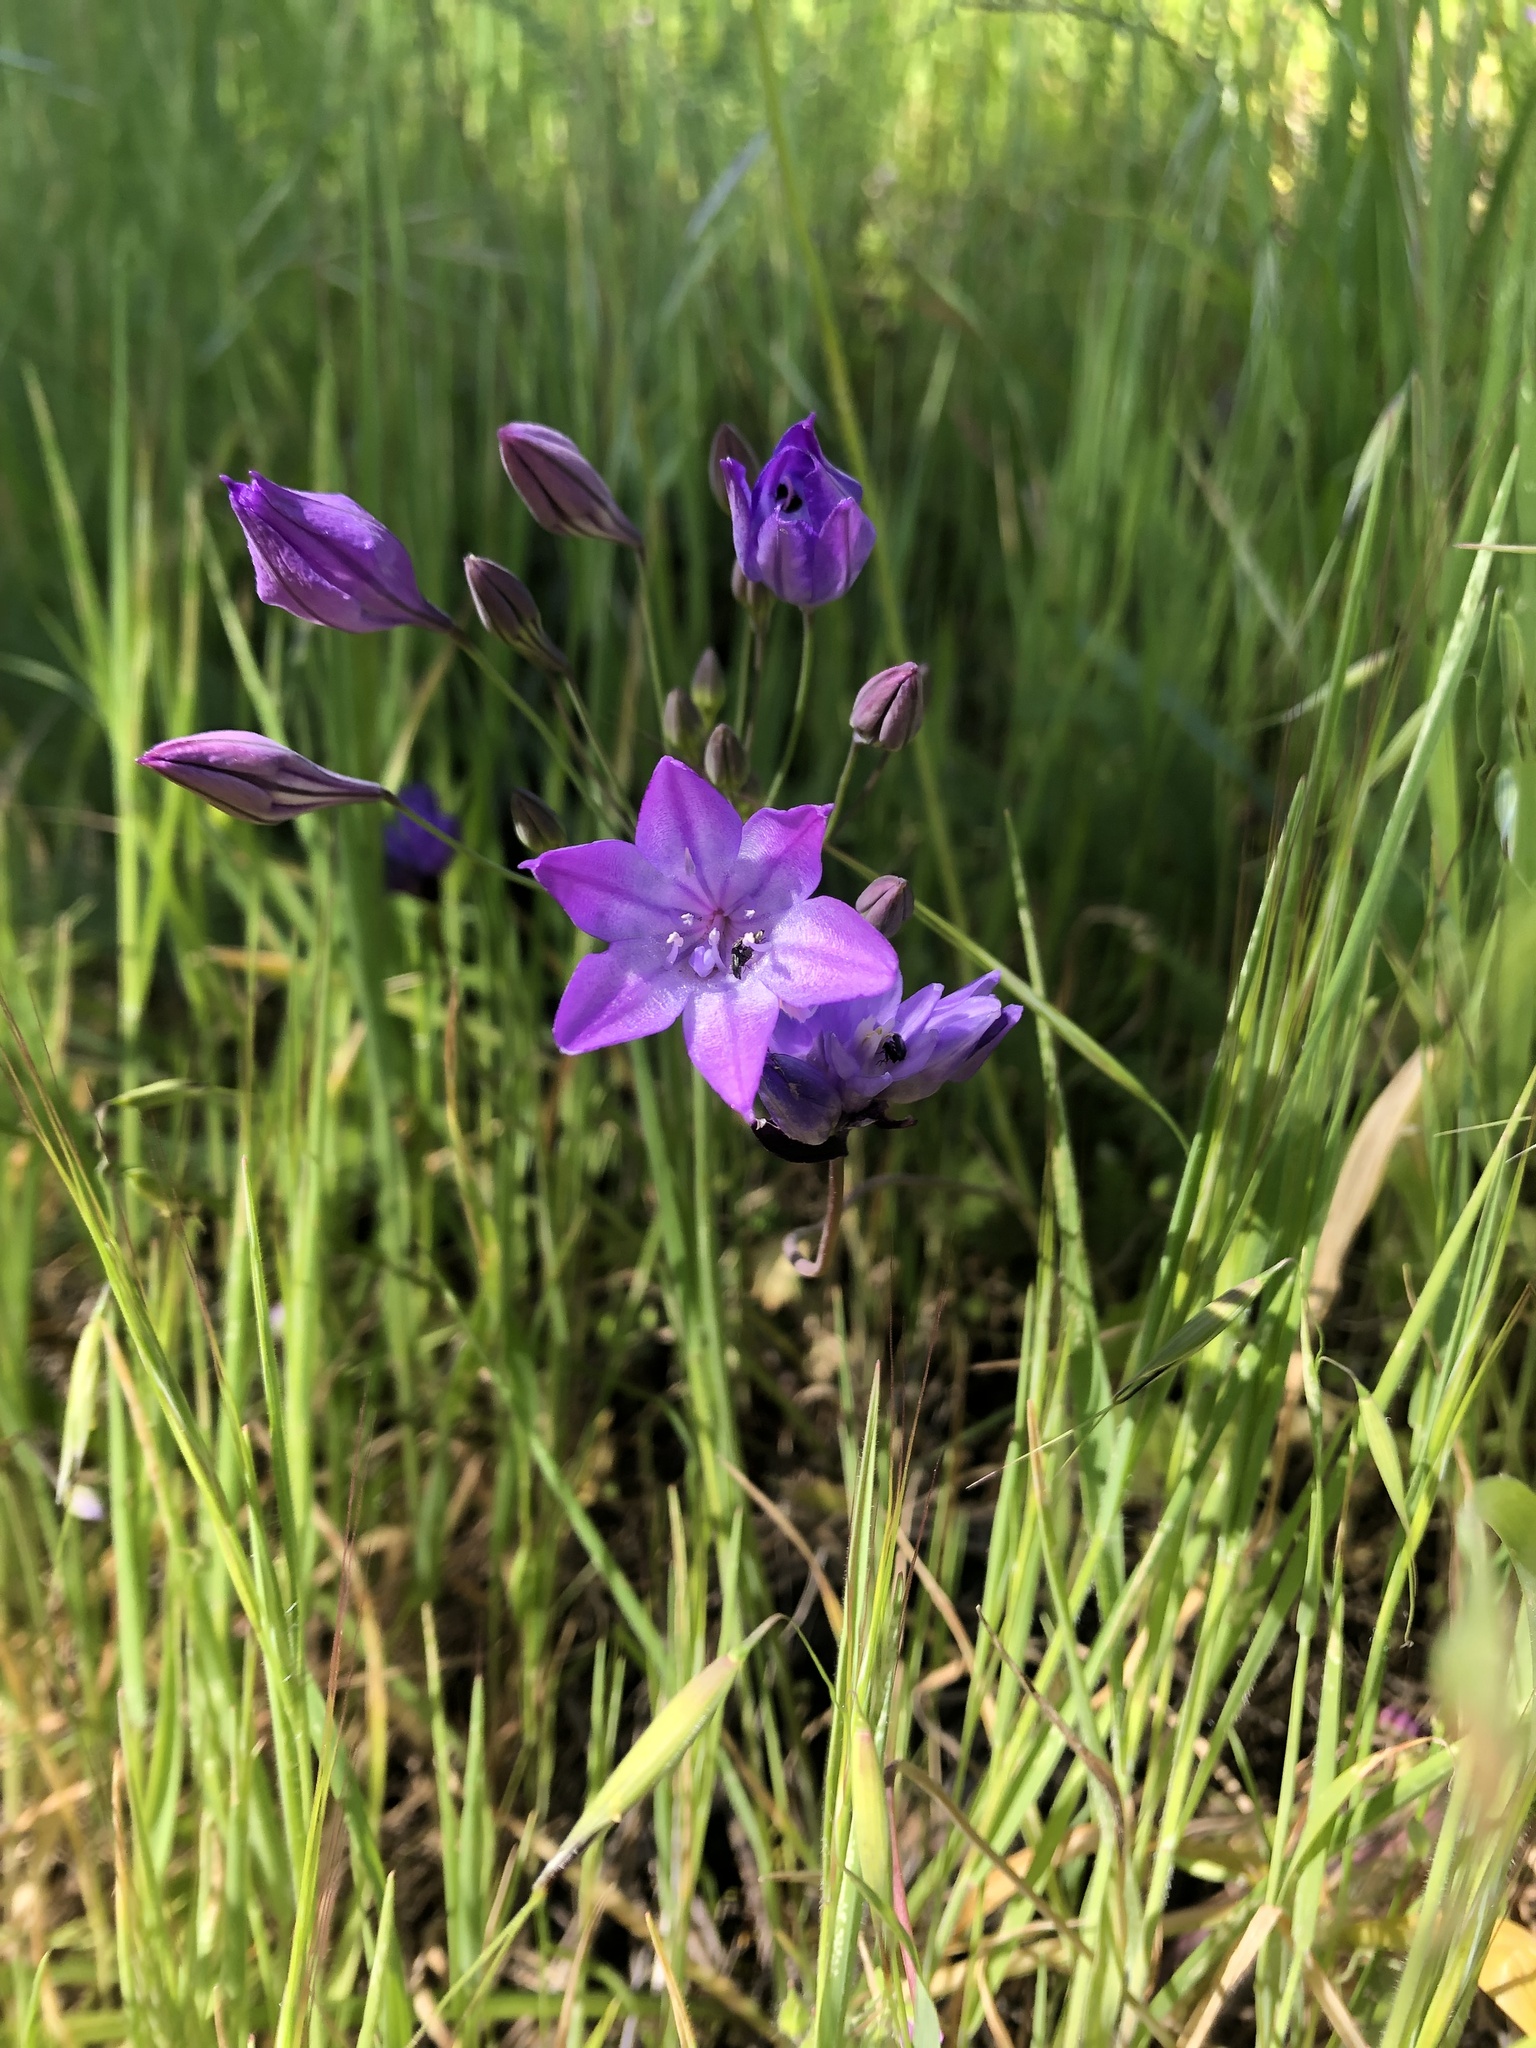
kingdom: Plantae
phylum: Tracheophyta
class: Liliopsida
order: Asparagales
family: Asparagaceae
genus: Triteleia
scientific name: Triteleia laxa
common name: Triplet-lily
